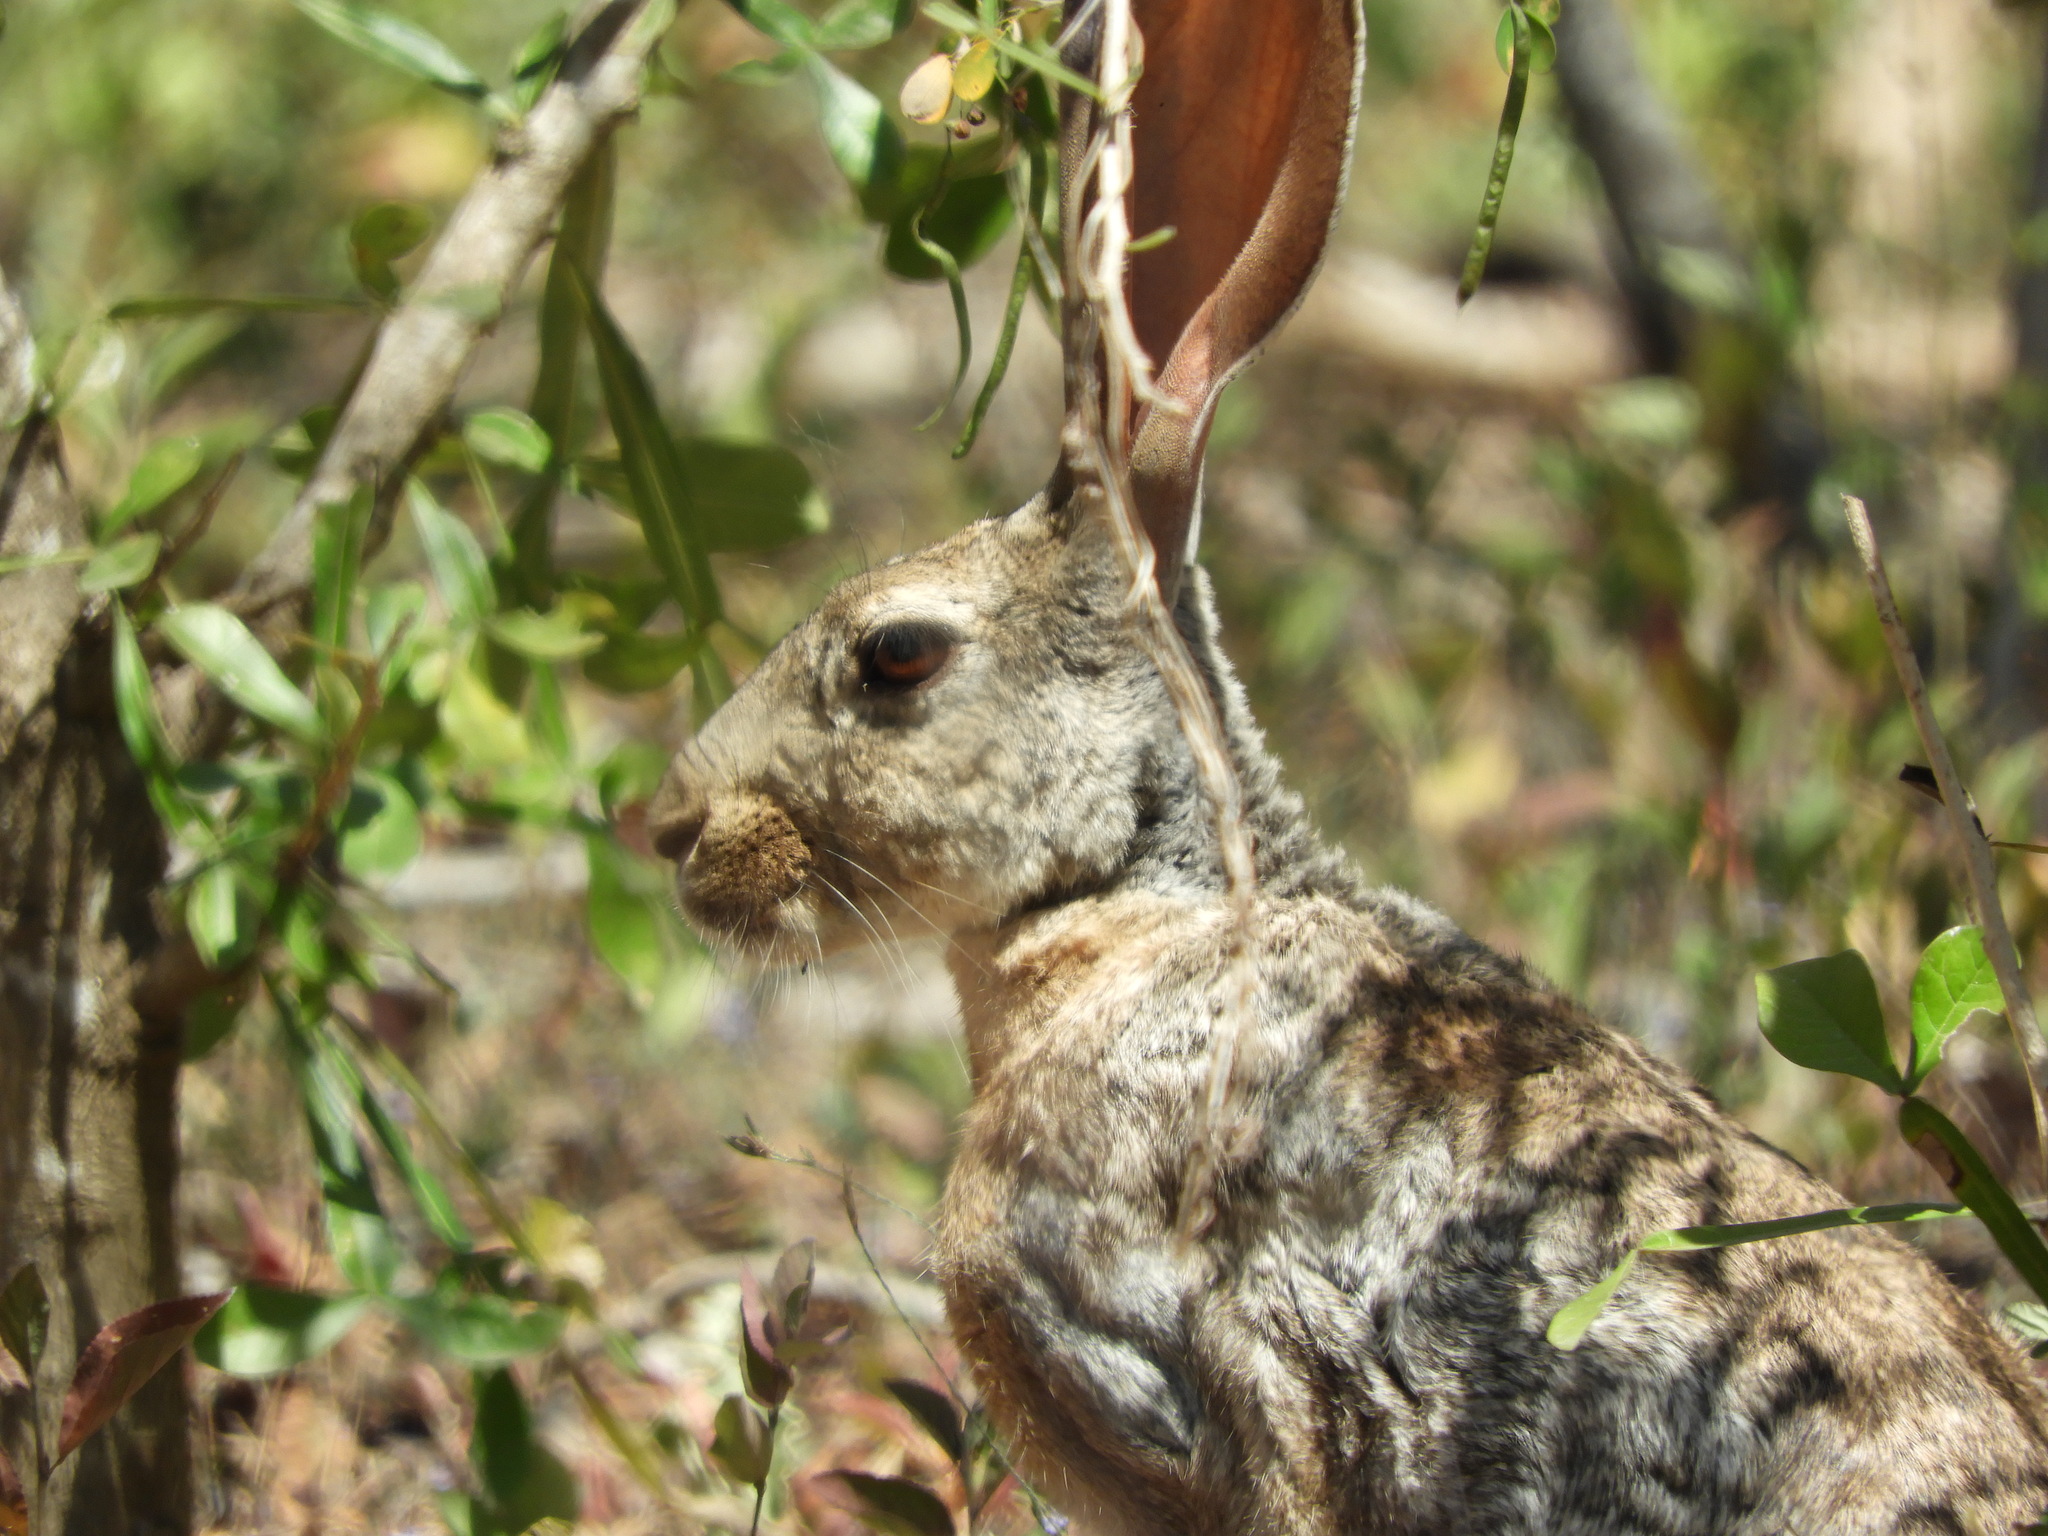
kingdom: Animalia
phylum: Chordata
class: Mammalia
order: Lagomorpha
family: Leporidae
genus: Lepus
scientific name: Lepus alleni
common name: Antelope jackrabbit
